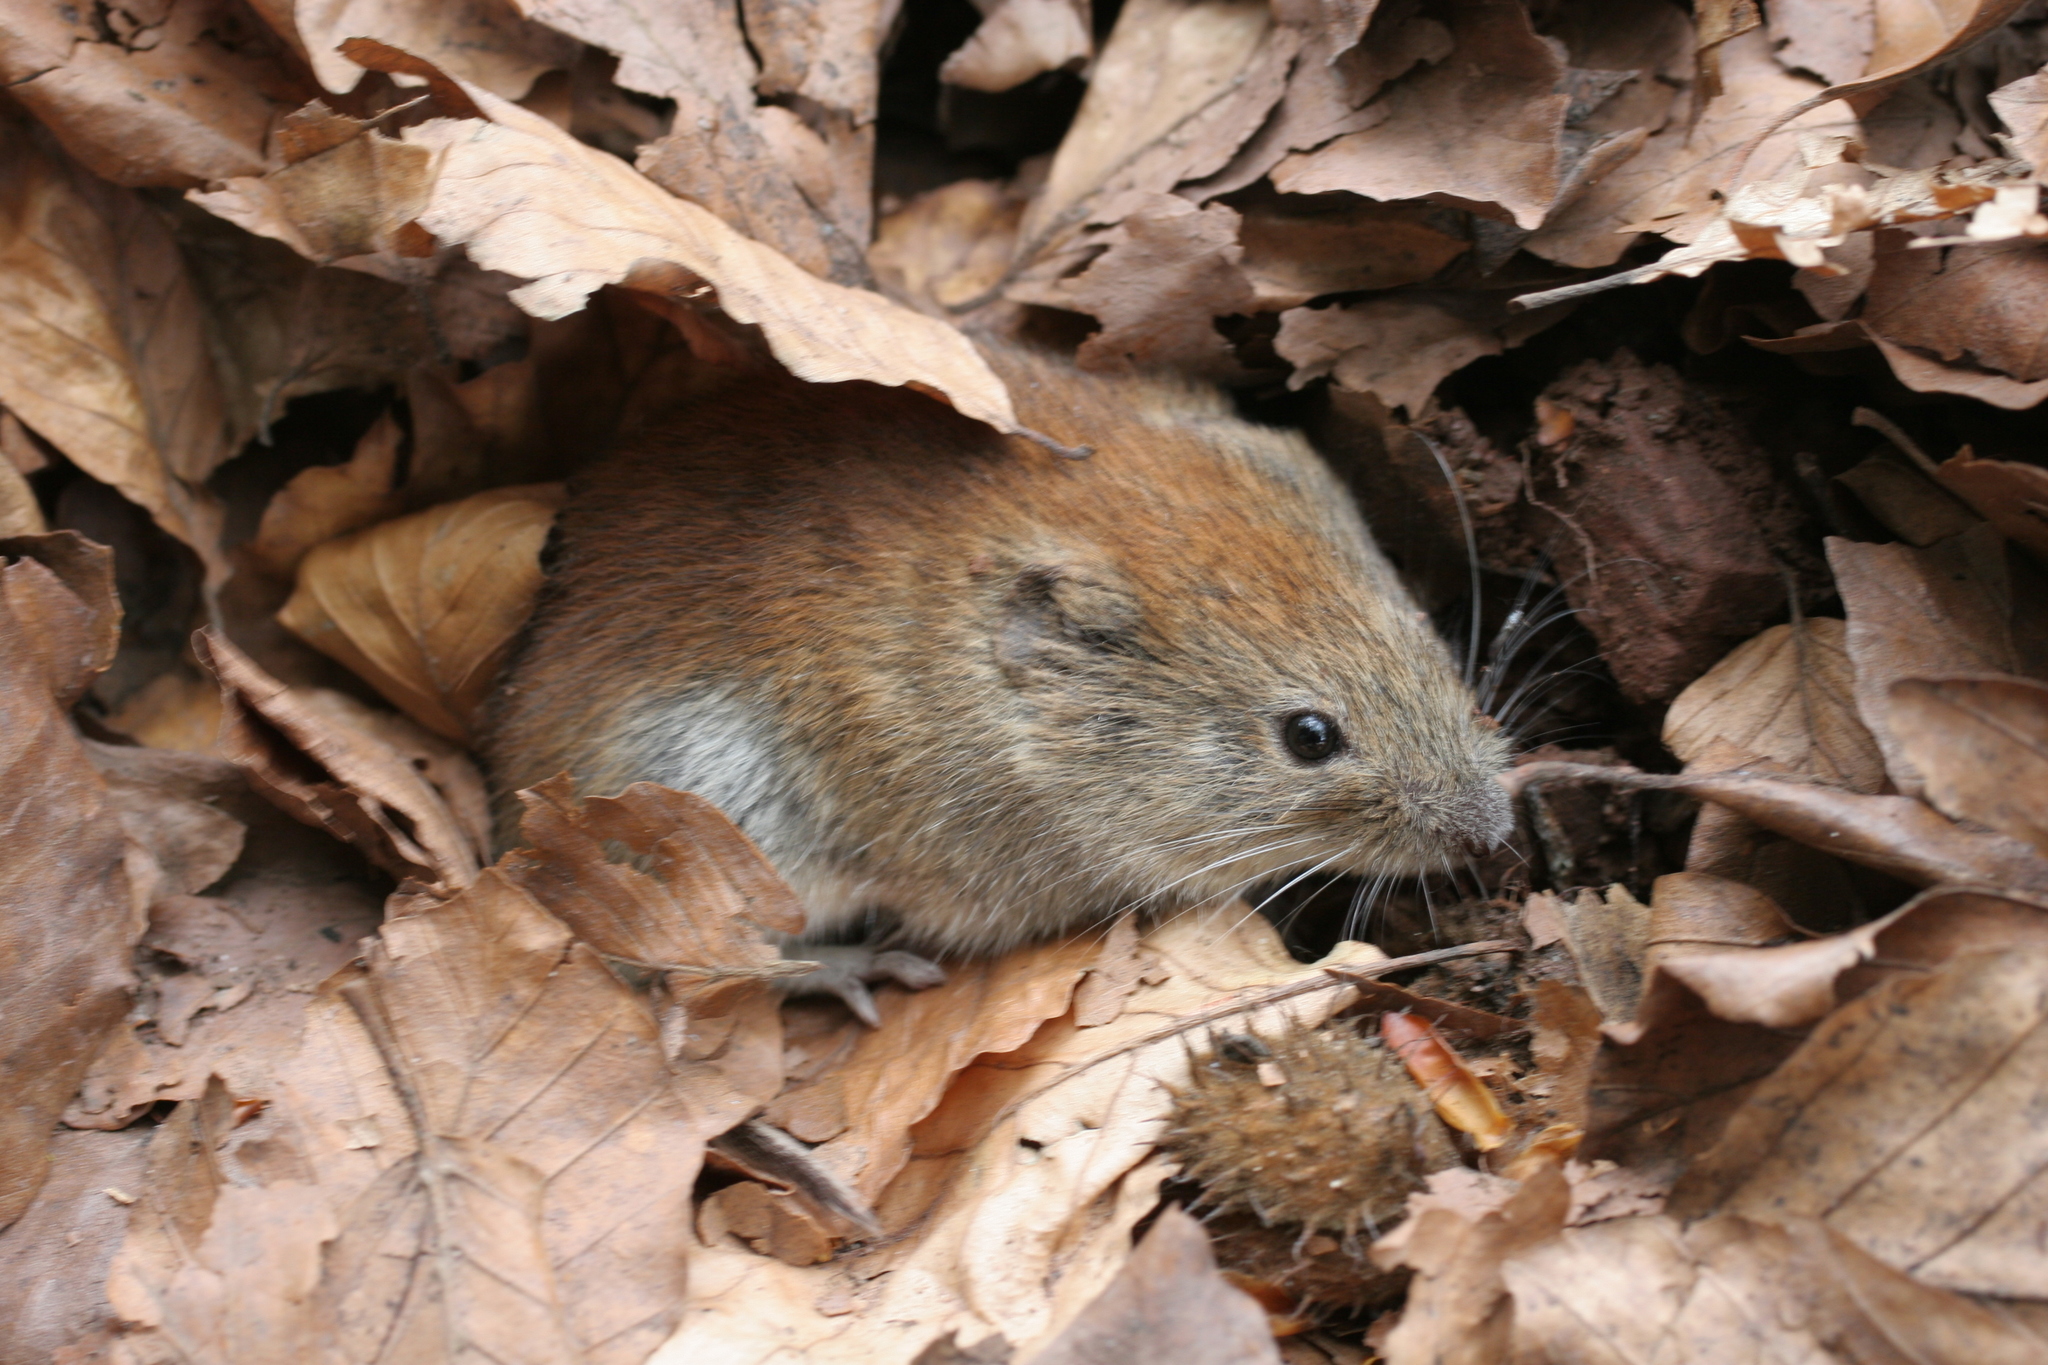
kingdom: Animalia
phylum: Chordata
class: Mammalia
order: Rodentia
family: Cricetidae
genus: Myodes
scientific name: Myodes glareolus
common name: Bank vole
